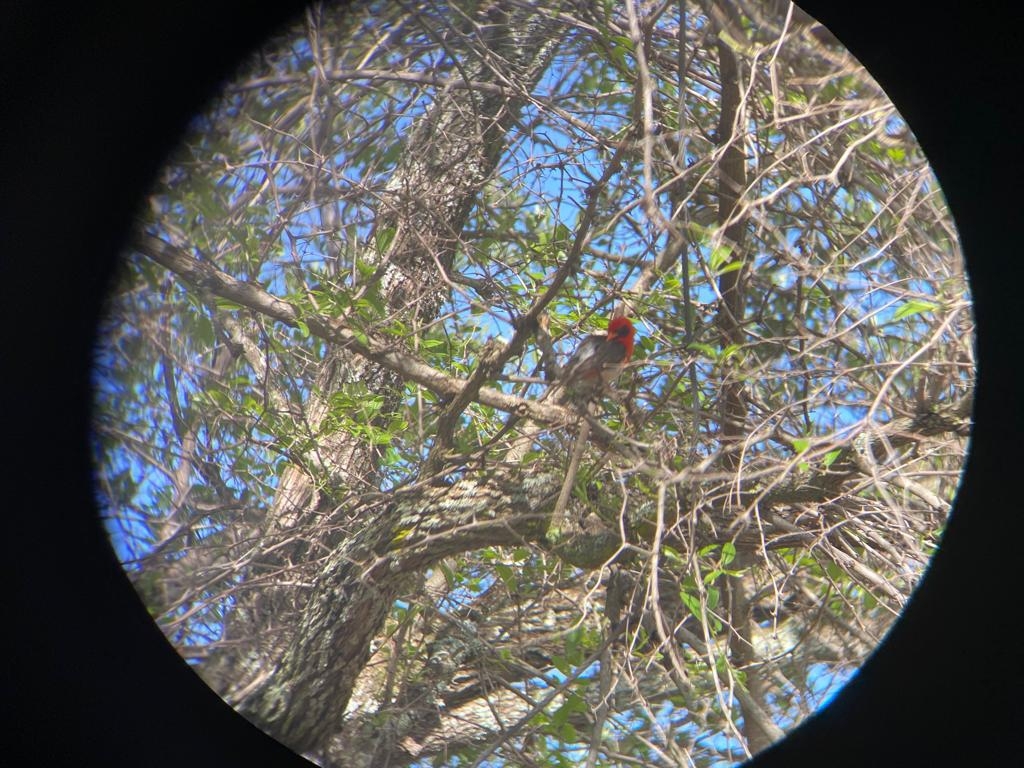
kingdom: Animalia
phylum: Chordata
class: Aves
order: Passeriformes
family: Ploceidae
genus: Anaplectes
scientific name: Anaplectes rubriceps
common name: Red-headed weaver
